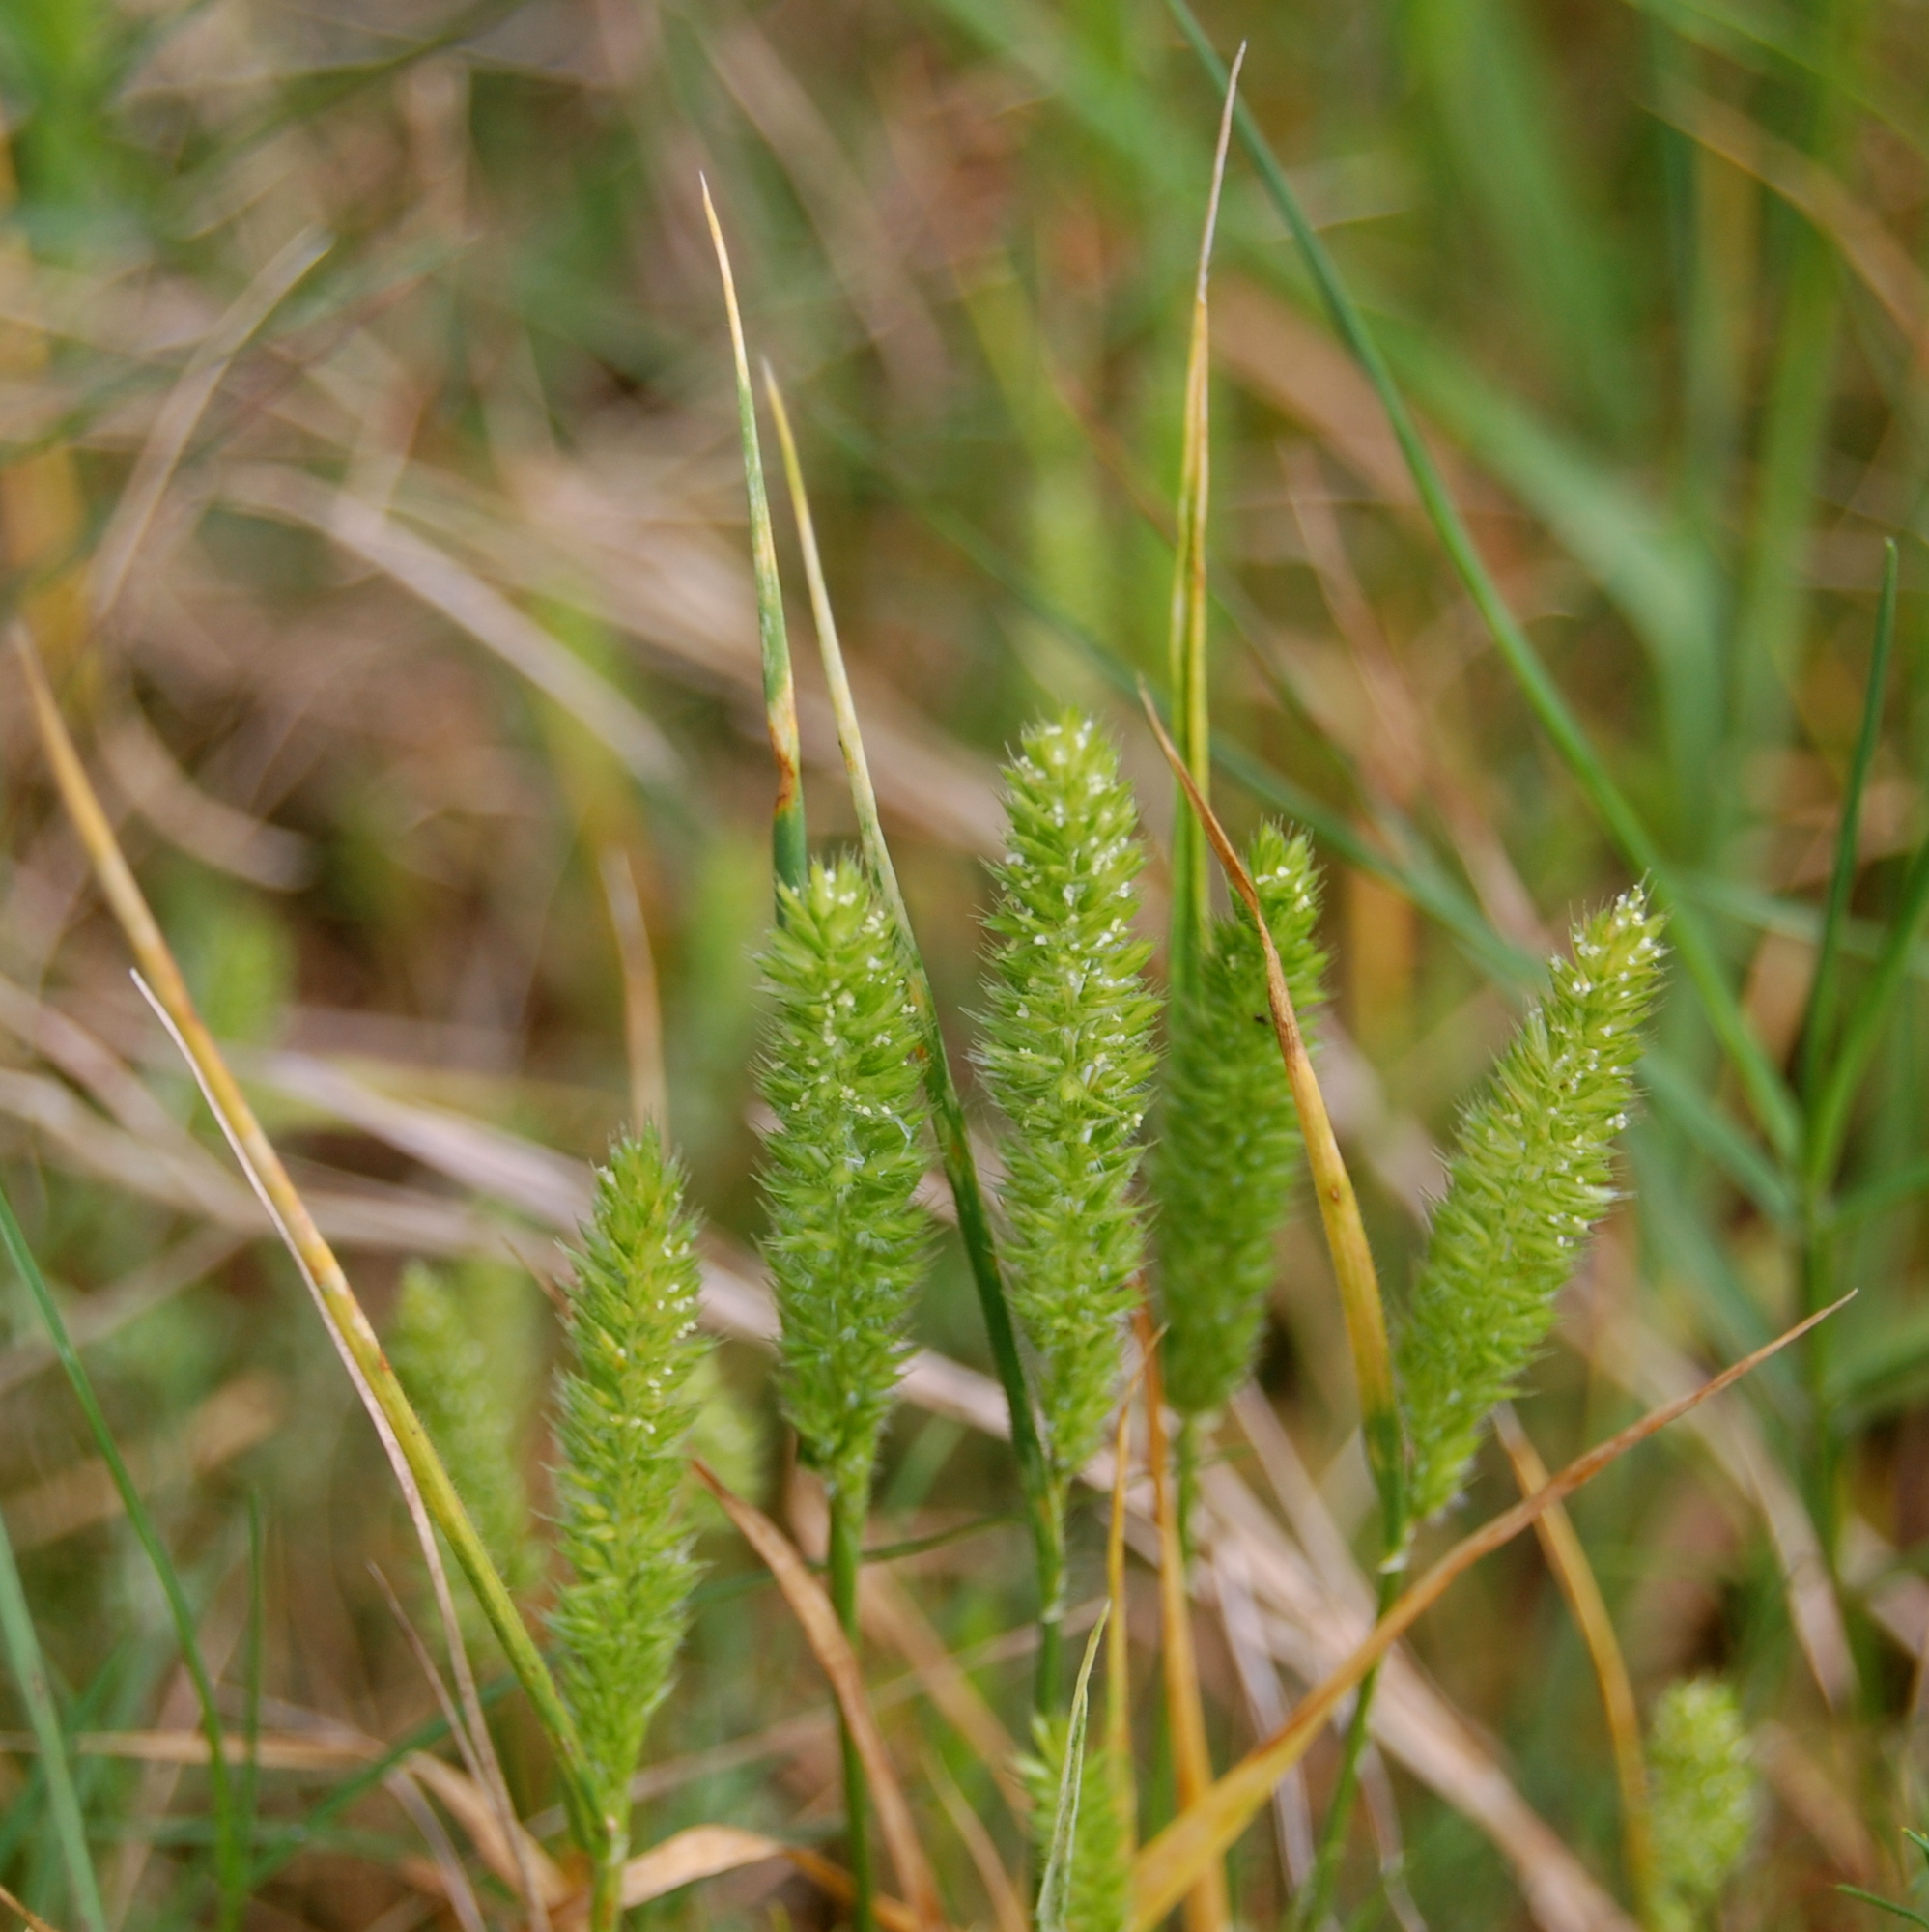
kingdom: Plantae
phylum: Tracheophyta
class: Liliopsida
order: Poales
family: Poaceae
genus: Rostraria
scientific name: Rostraria cristata
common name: Mediterranean hair-grass
